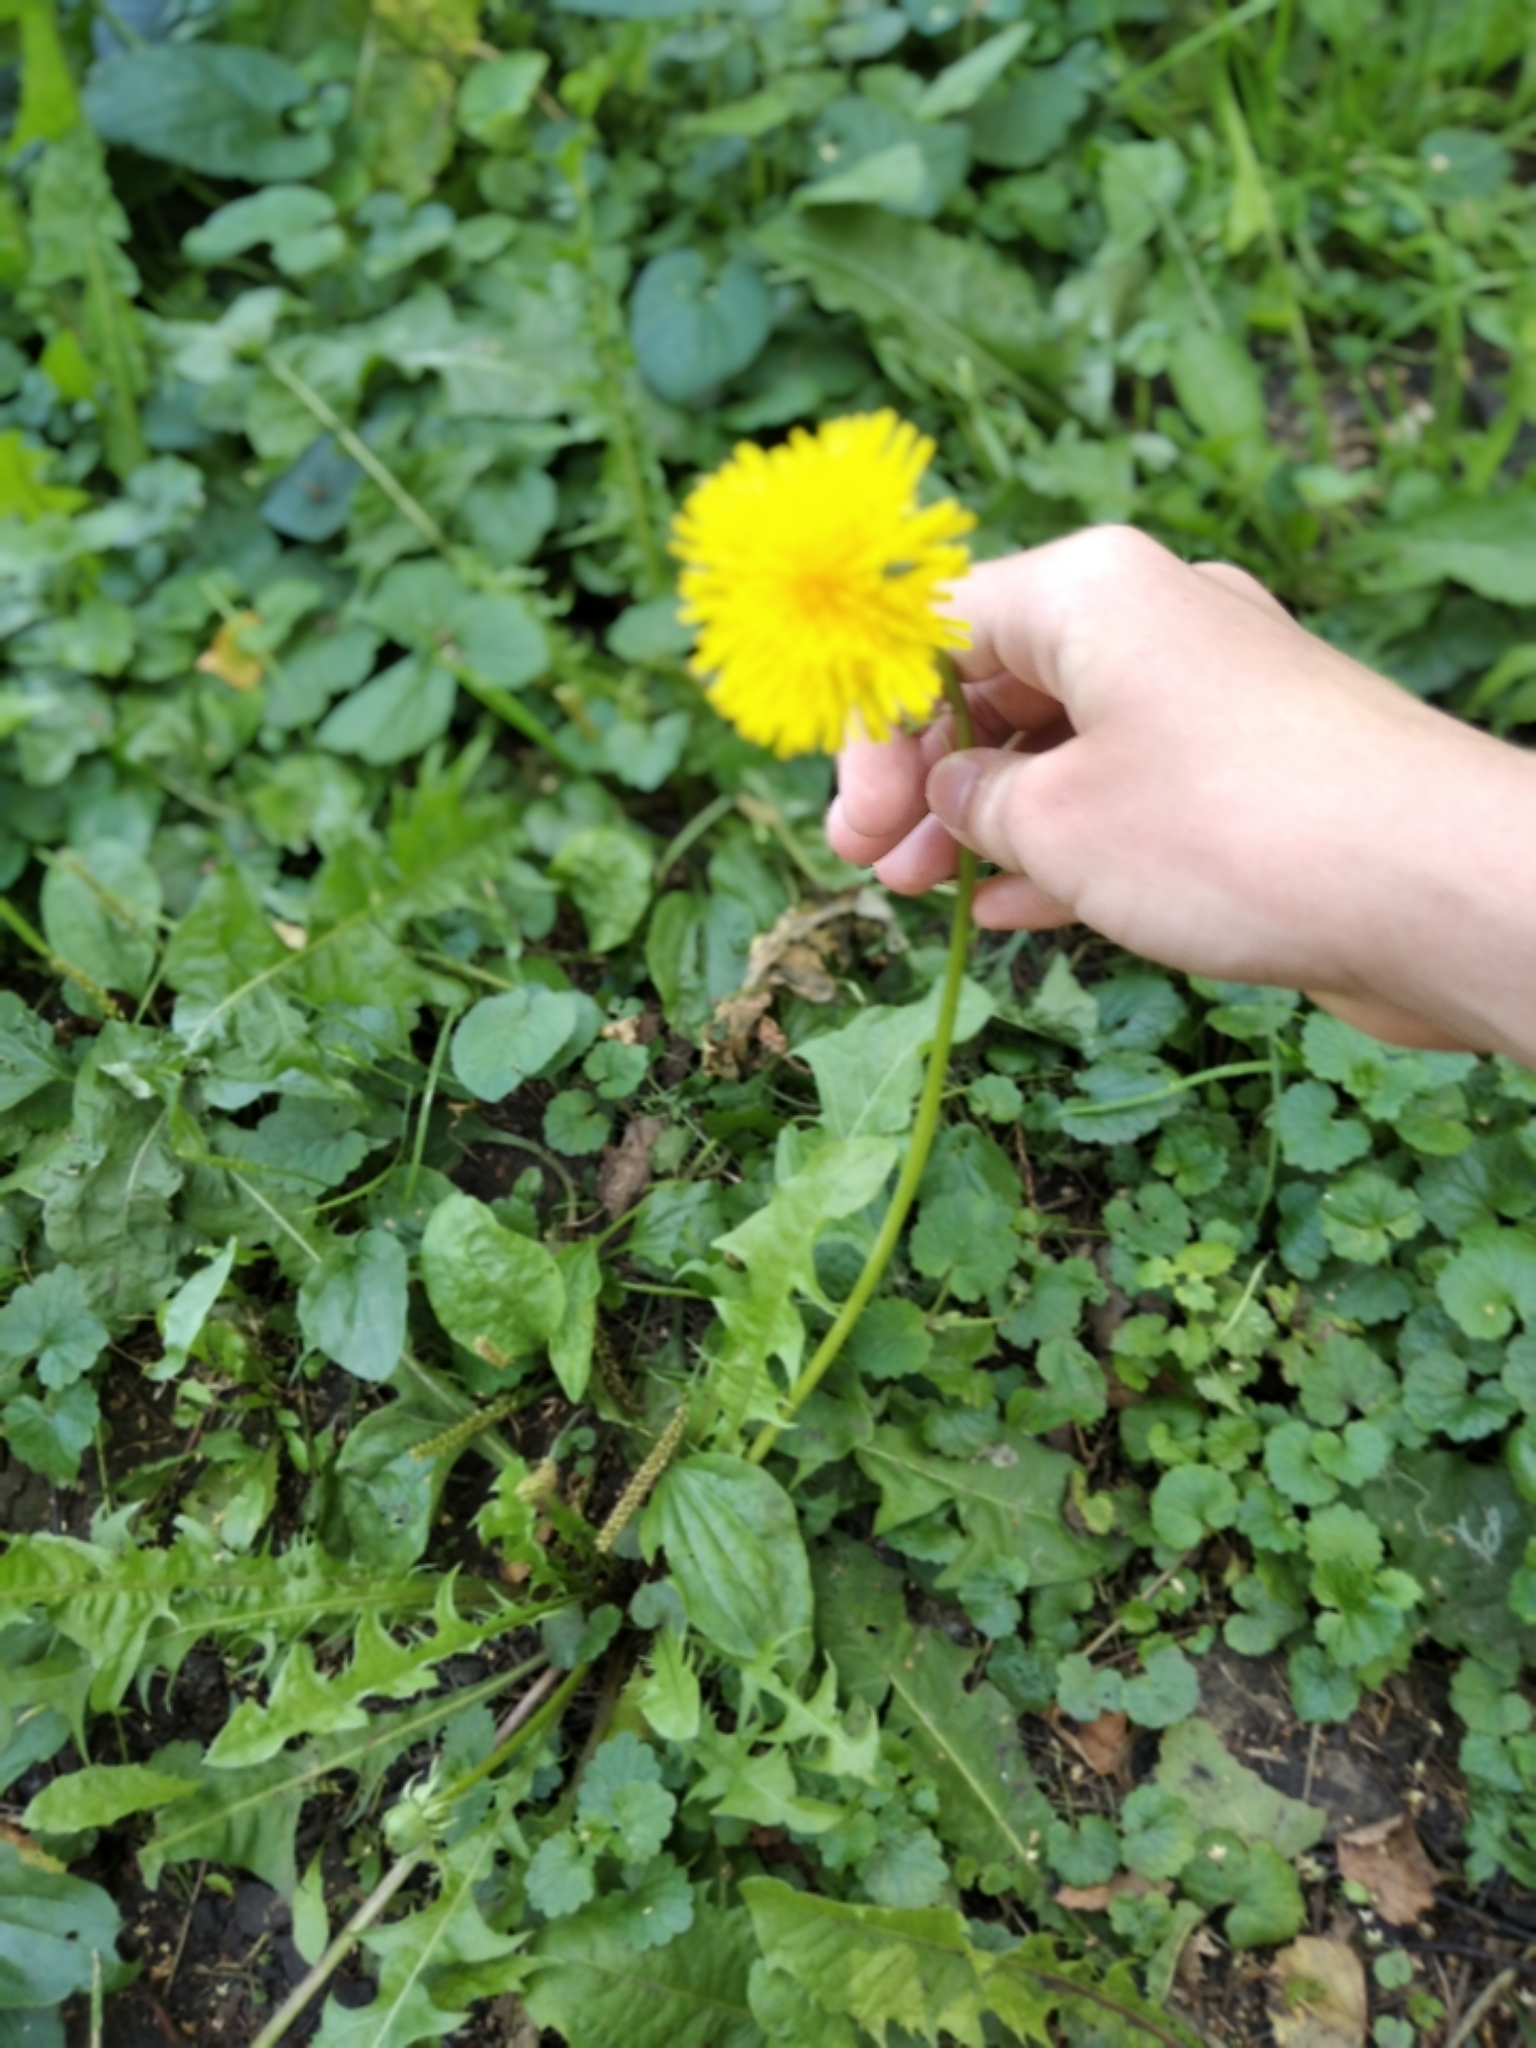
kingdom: Plantae
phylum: Tracheophyta
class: Magnoliopsida
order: Asterales
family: Asteraceae
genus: Taraxacum
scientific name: Taraxacum officinale
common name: Common dandelion
